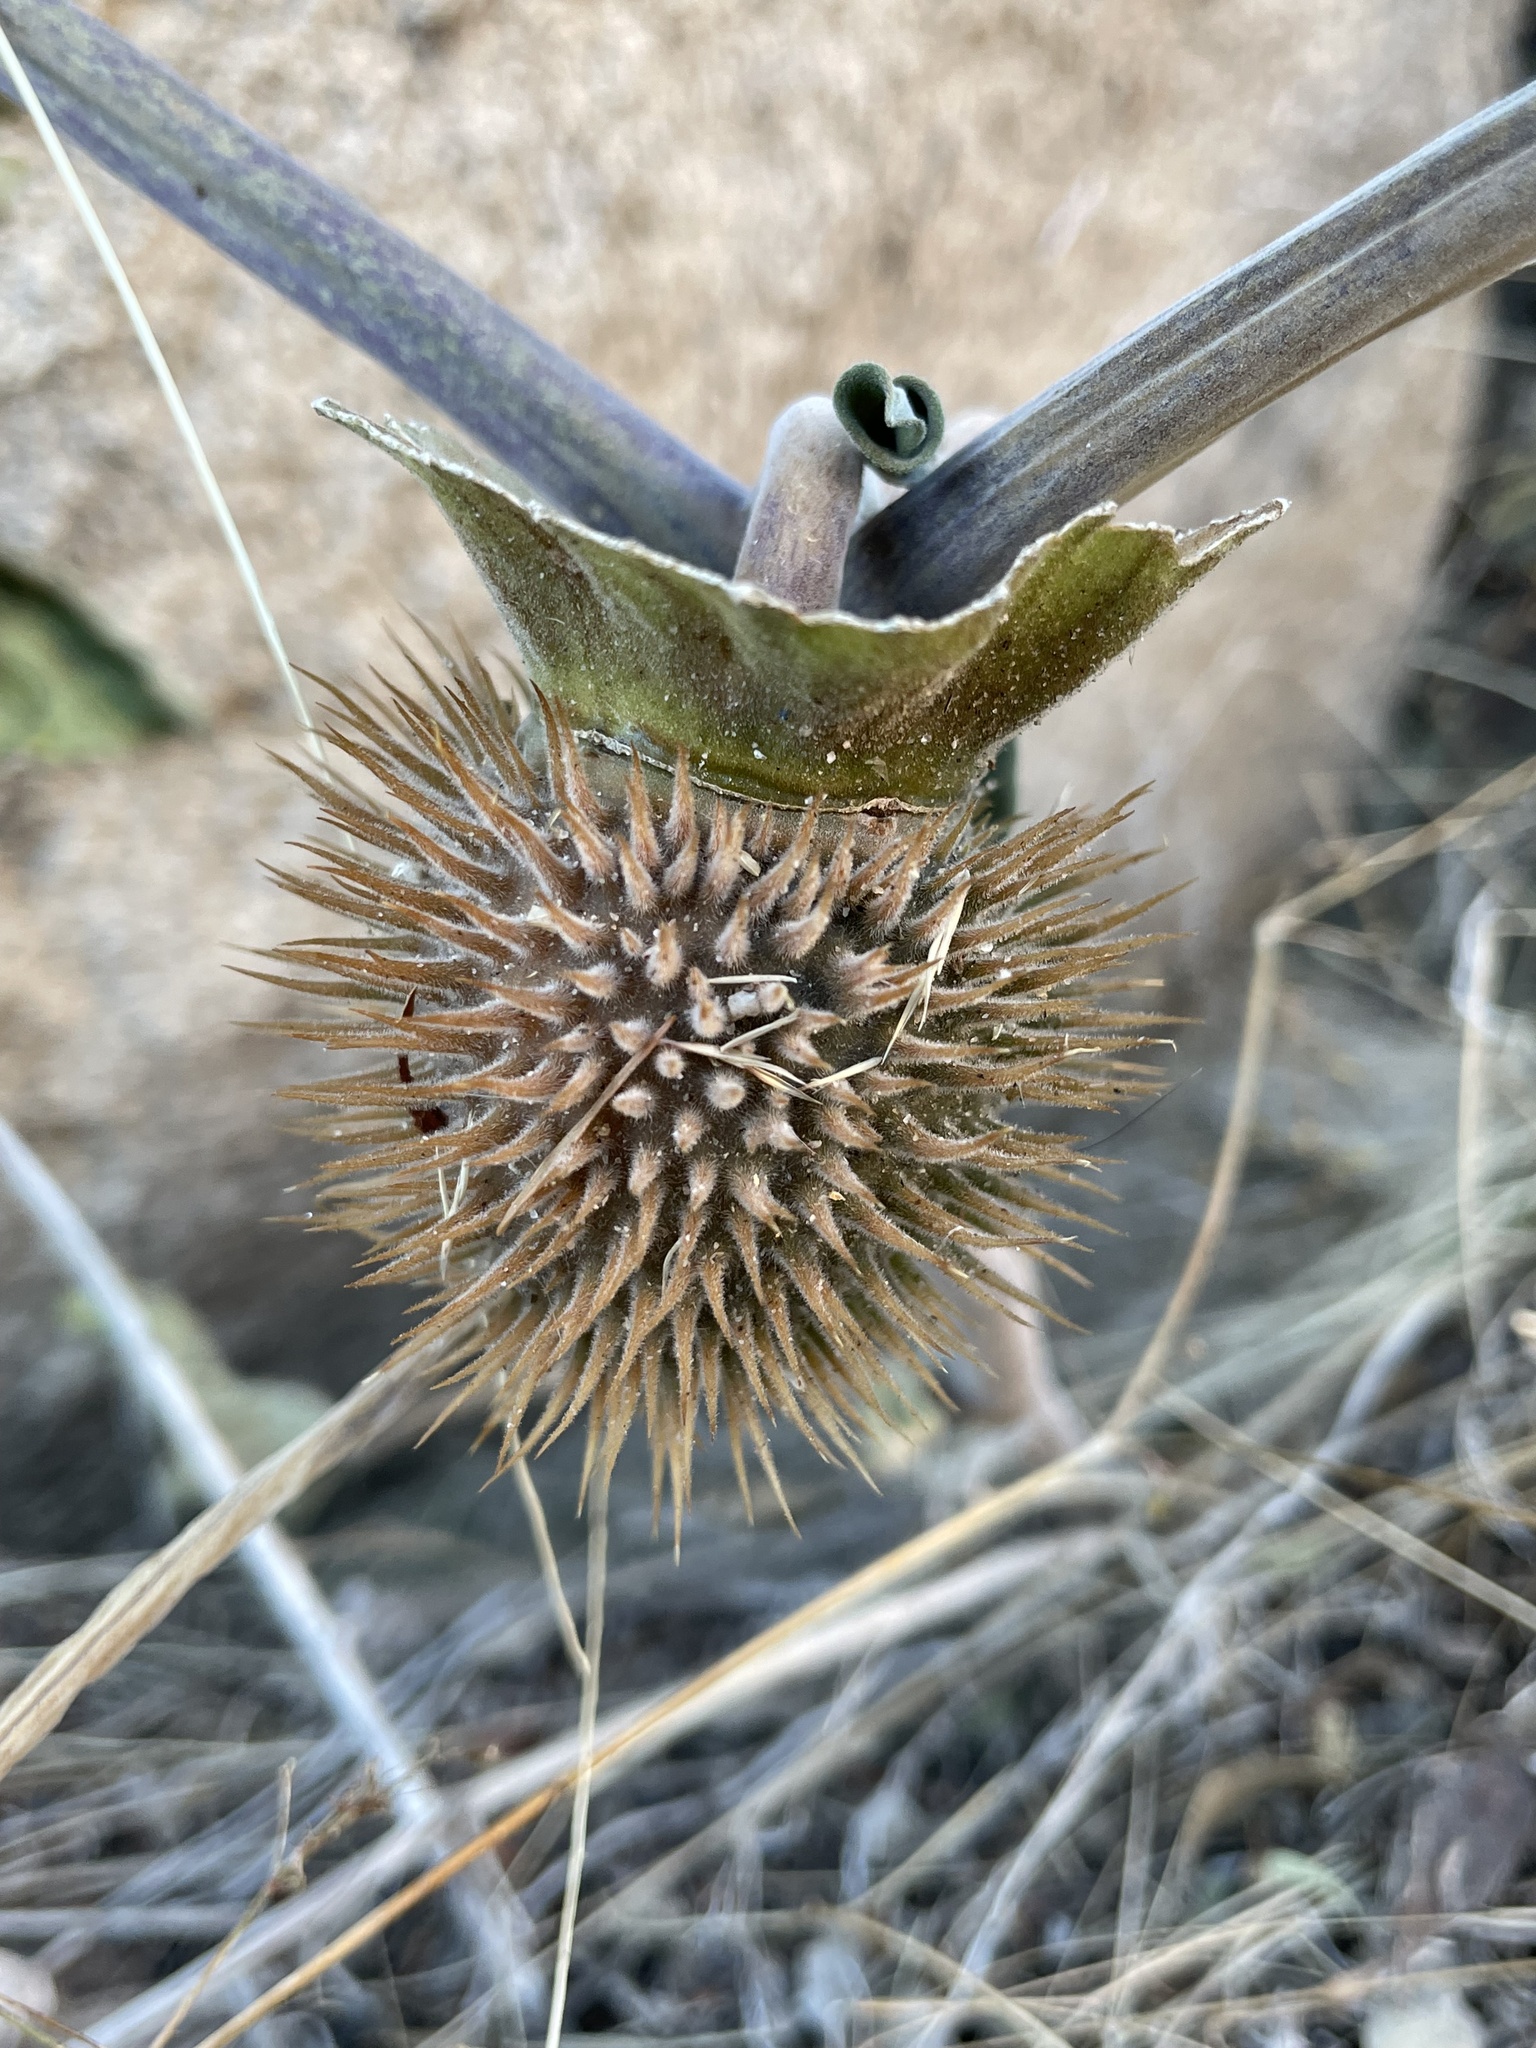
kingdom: Plantae
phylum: Tracheophyta
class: Magnoliopsida
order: Solanales
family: Solanaceae
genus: Datura
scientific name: Datura wrightii
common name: Sacred thorn-apple
